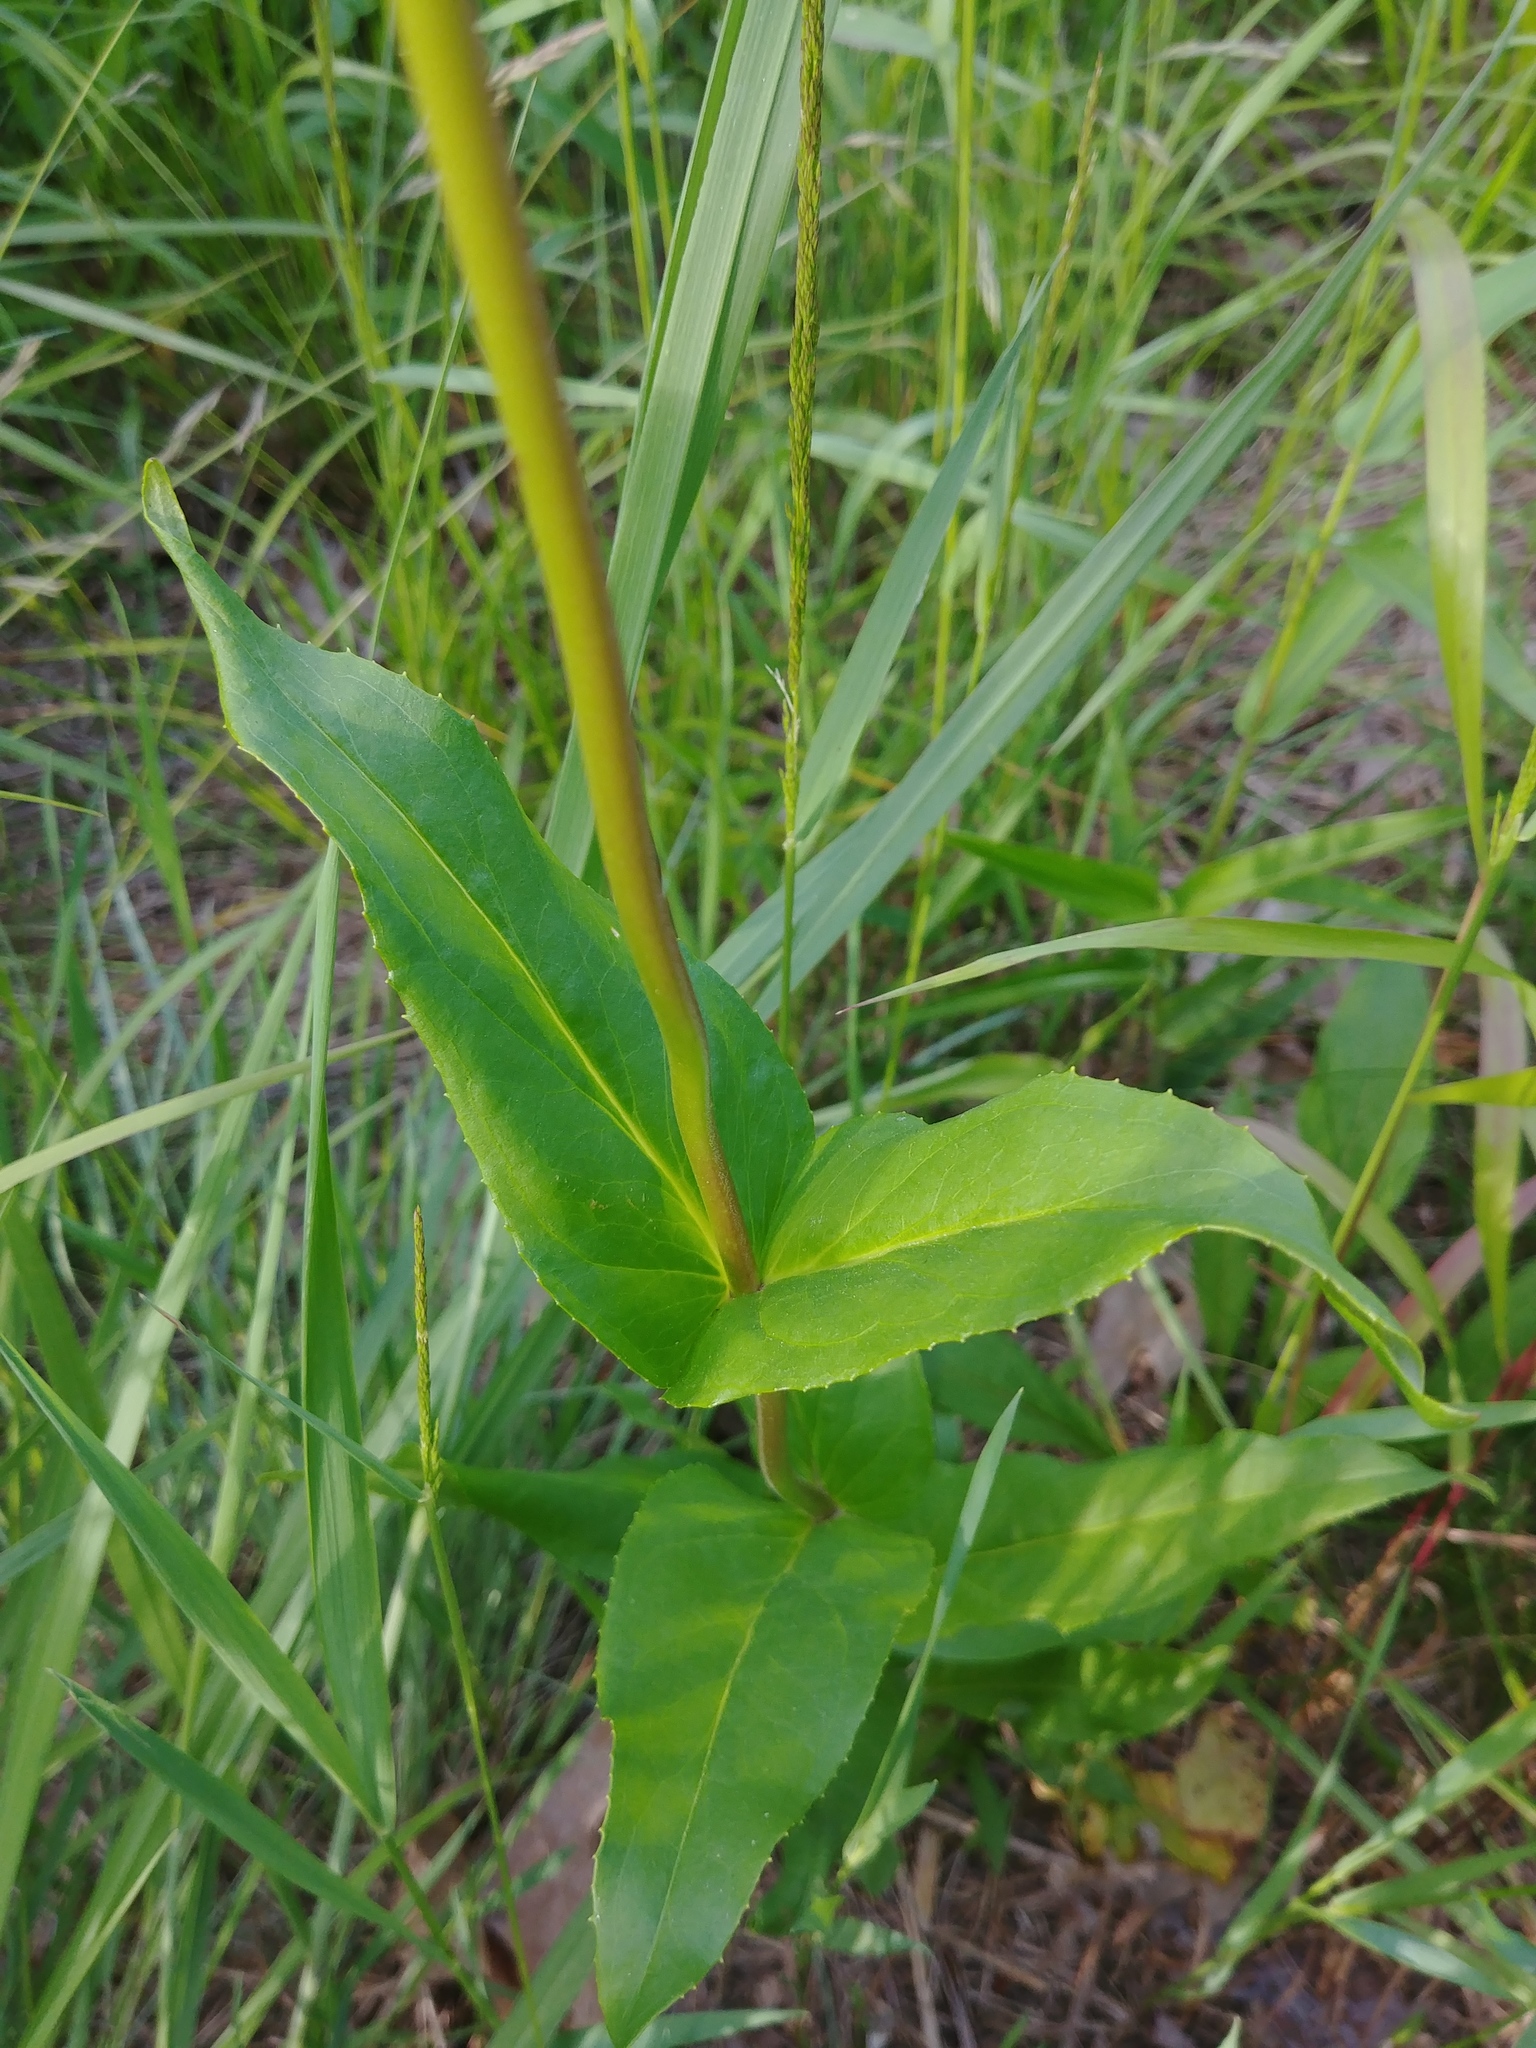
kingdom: Plantae
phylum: Tracheophyta
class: Magnoliopsida
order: Lamiales
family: Plantaginaceae
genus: Penstemon
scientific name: Penstemon digitalis
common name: Foxglove beardtongue
